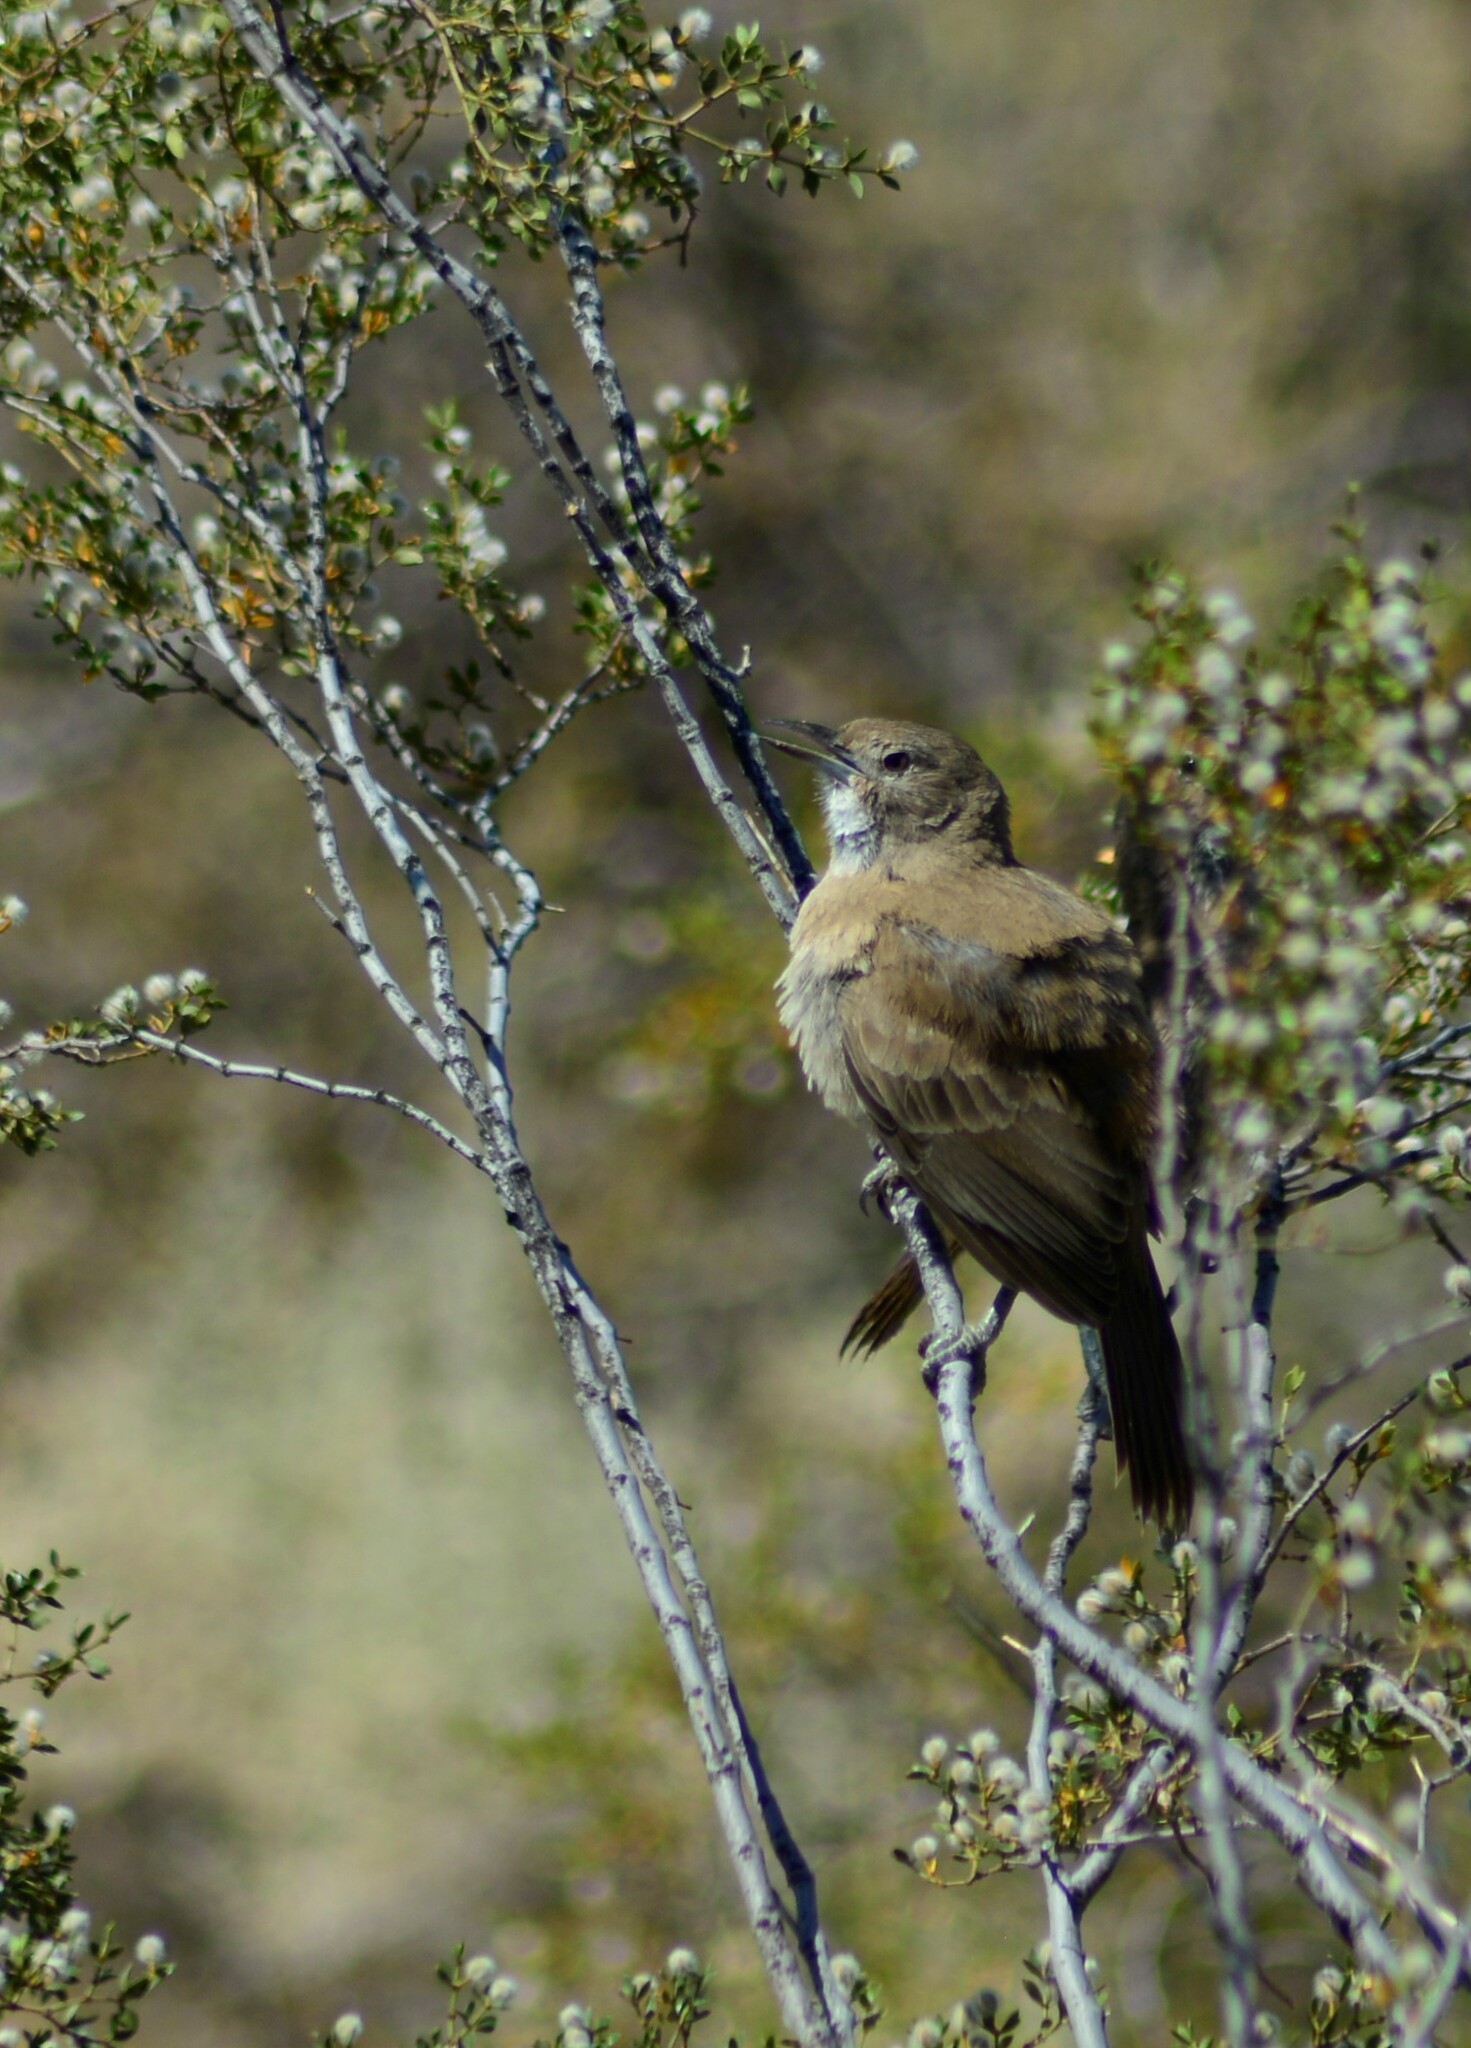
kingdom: Animalia
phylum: Chordata
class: Aves
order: Passeriformes
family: Furnariidae
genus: Pseudoseisura
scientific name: Pseudoseisura gutturalis
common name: White-throated cacholote
